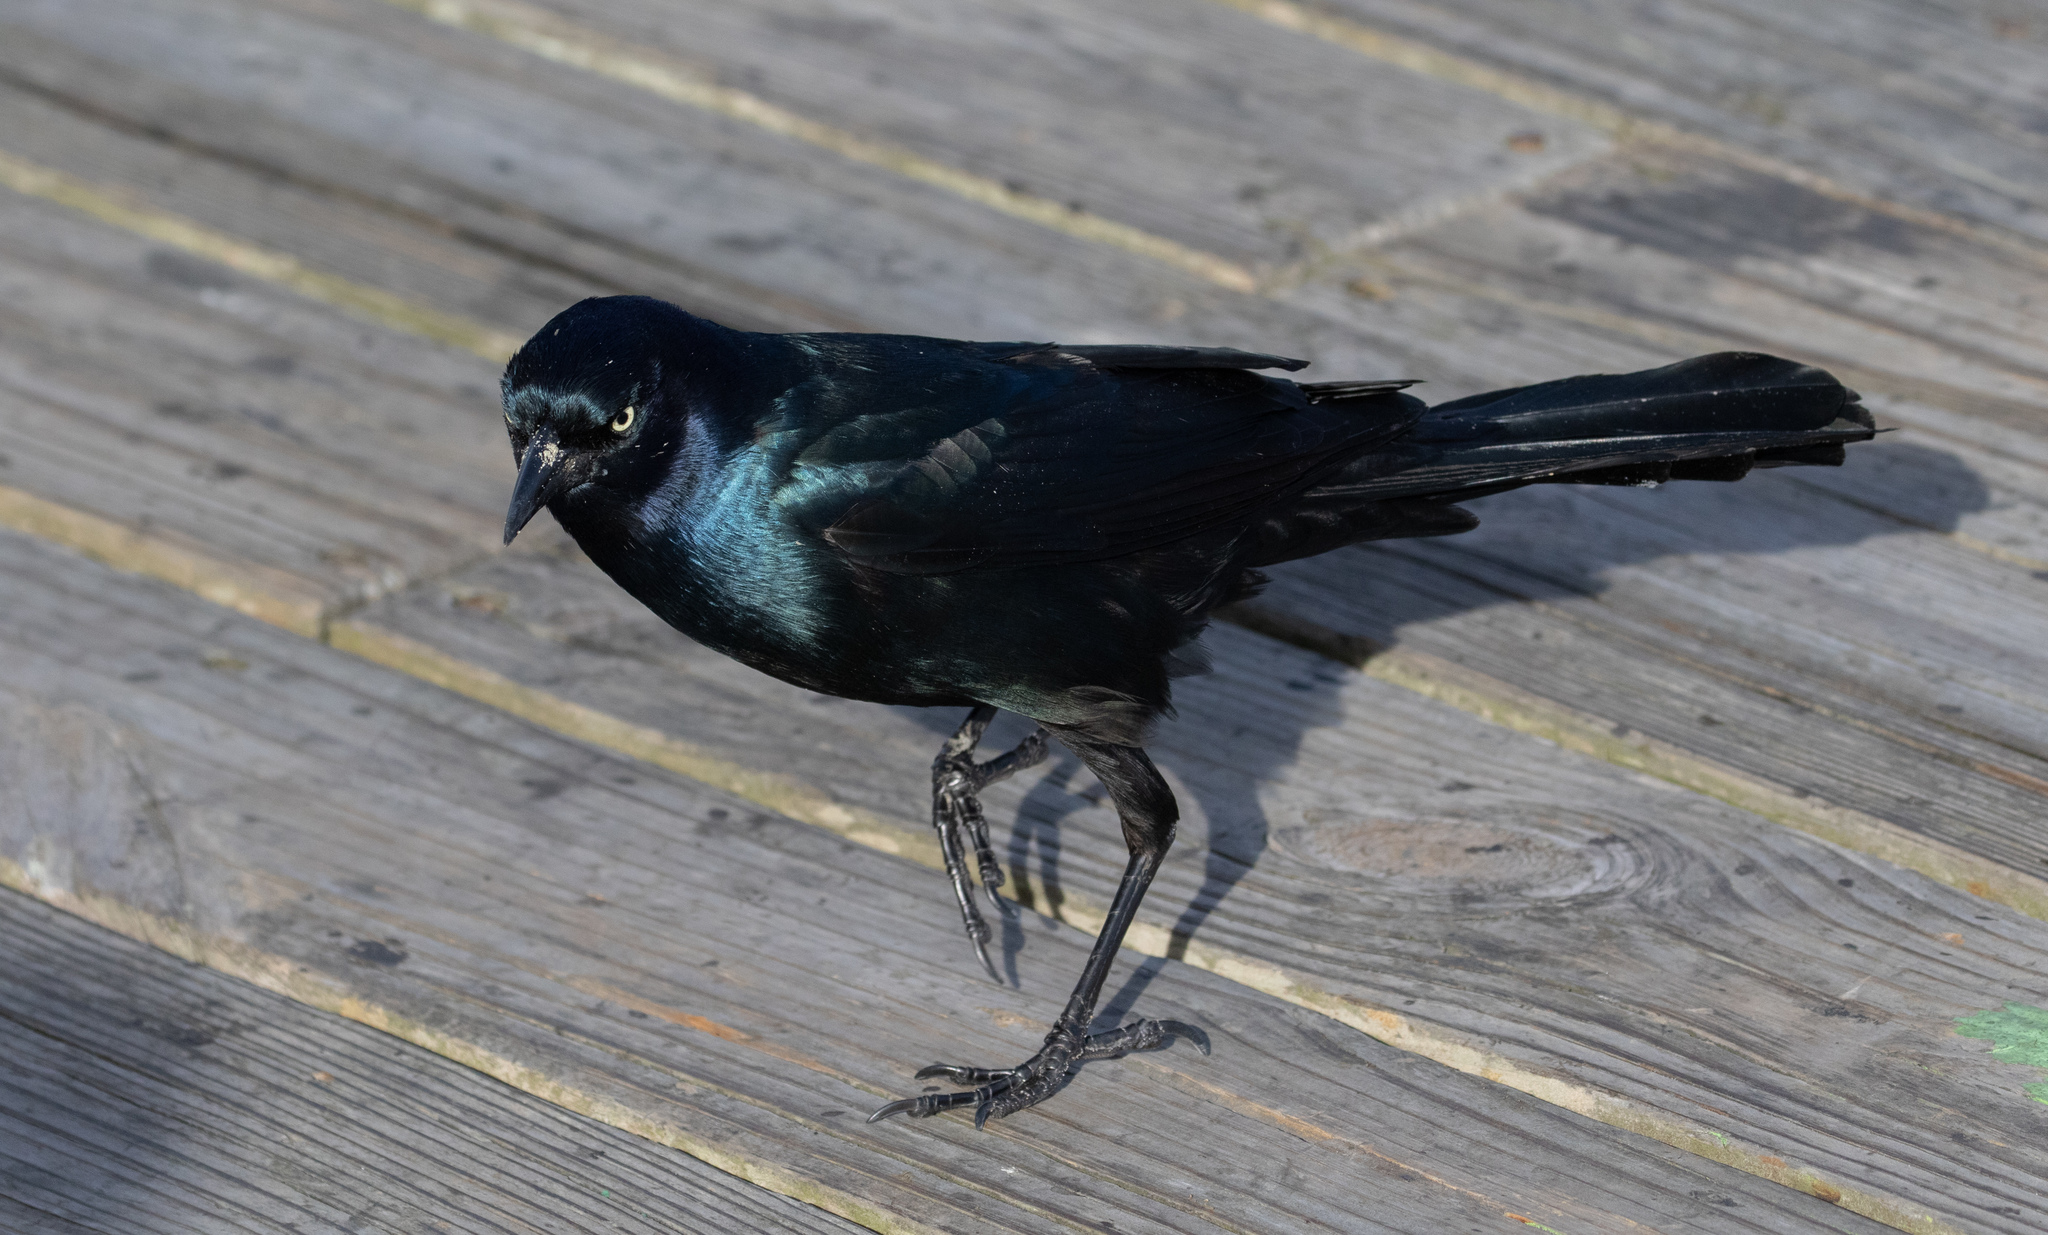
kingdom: Animalia
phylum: Chordata
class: Aves
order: Passeriformes
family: Icteridae
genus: Quiscalus
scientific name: Quiscalus major
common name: Boat-tailed grackle
